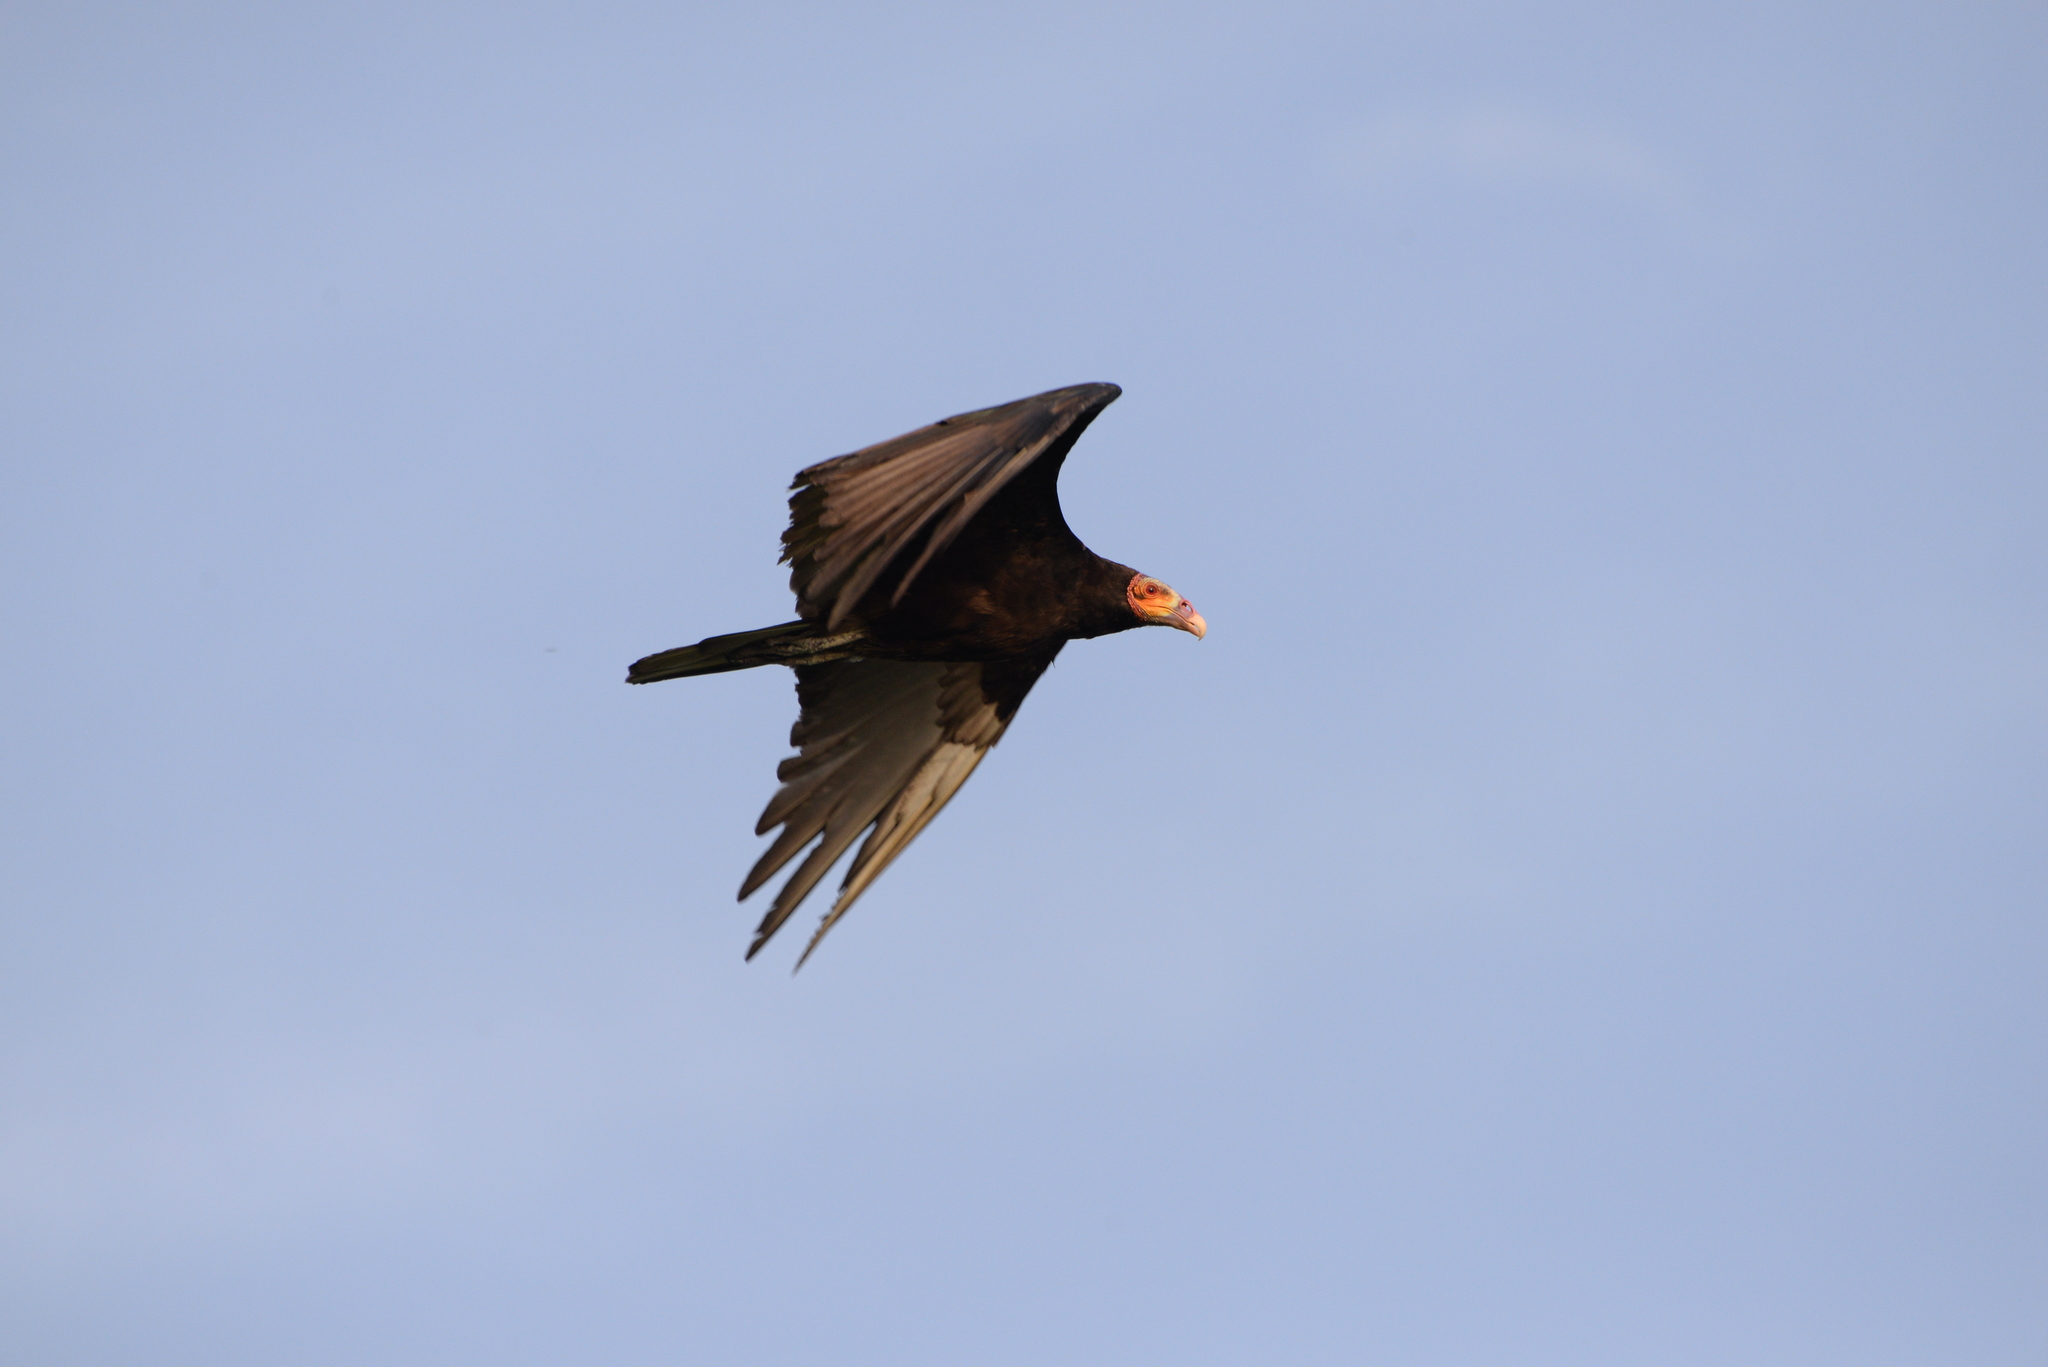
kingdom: Animalia
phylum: Chordata
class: Aves
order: Accipitriformes
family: Cathartidae
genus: Cathartes
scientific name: Cathartes burrovianus
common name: Lesser yellow-headed vulture
